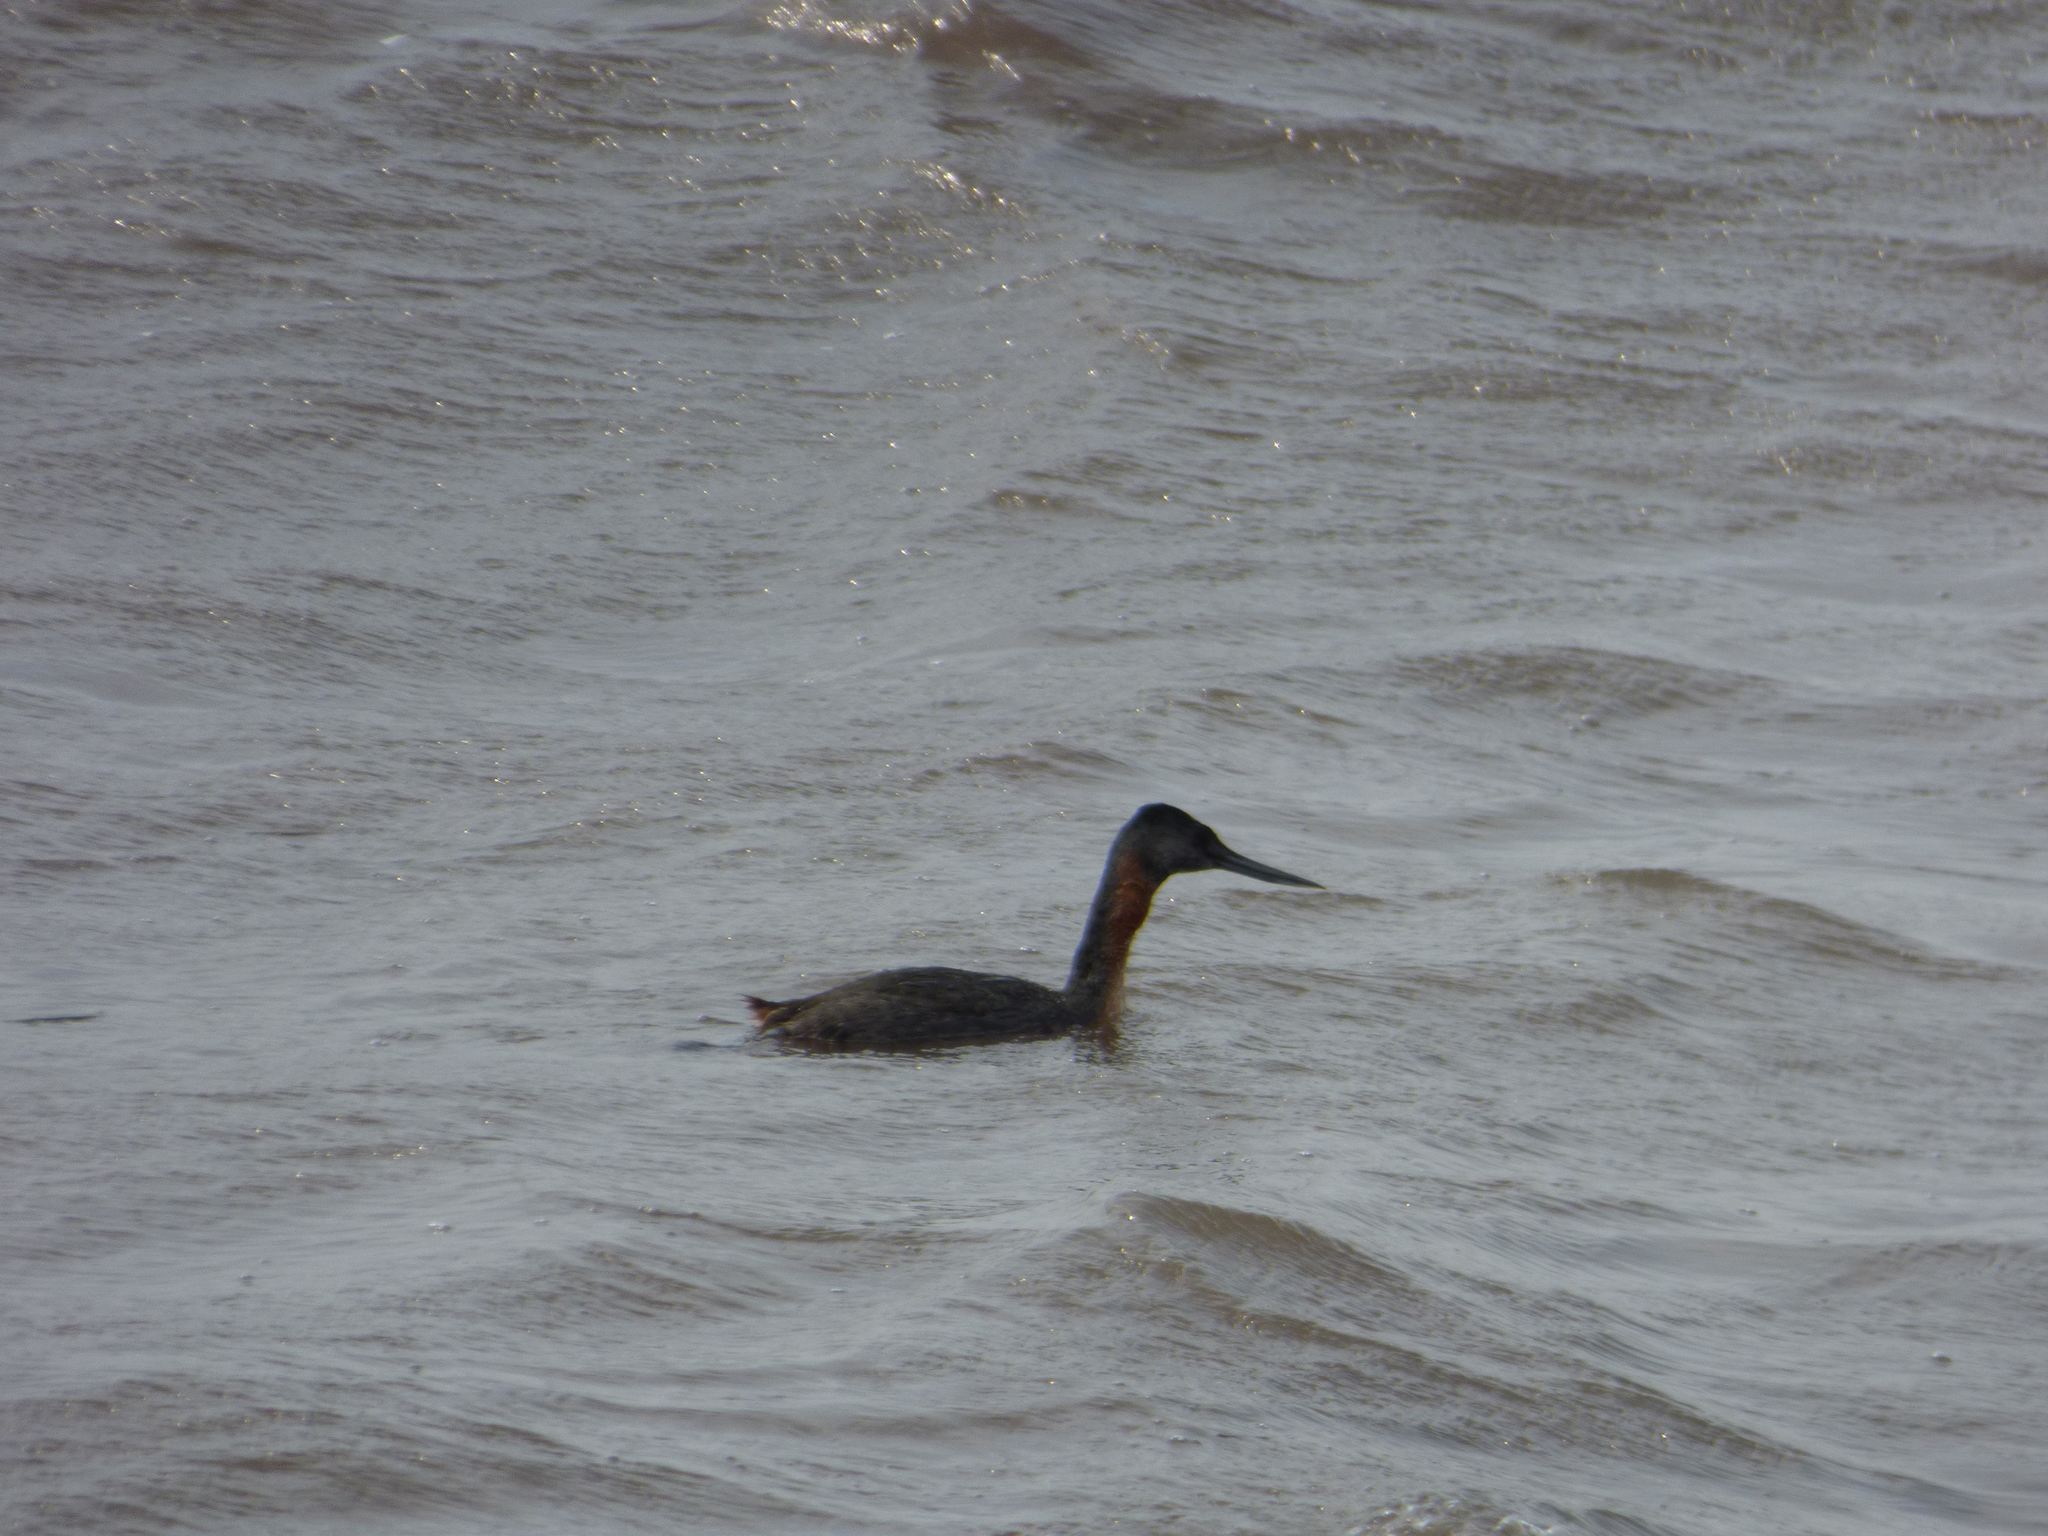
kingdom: Animalia
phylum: Chordata
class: Aves
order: Podicipediformes
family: Podicipedidae
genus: Podiceps
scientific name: Podiceps major
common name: Great grebe
